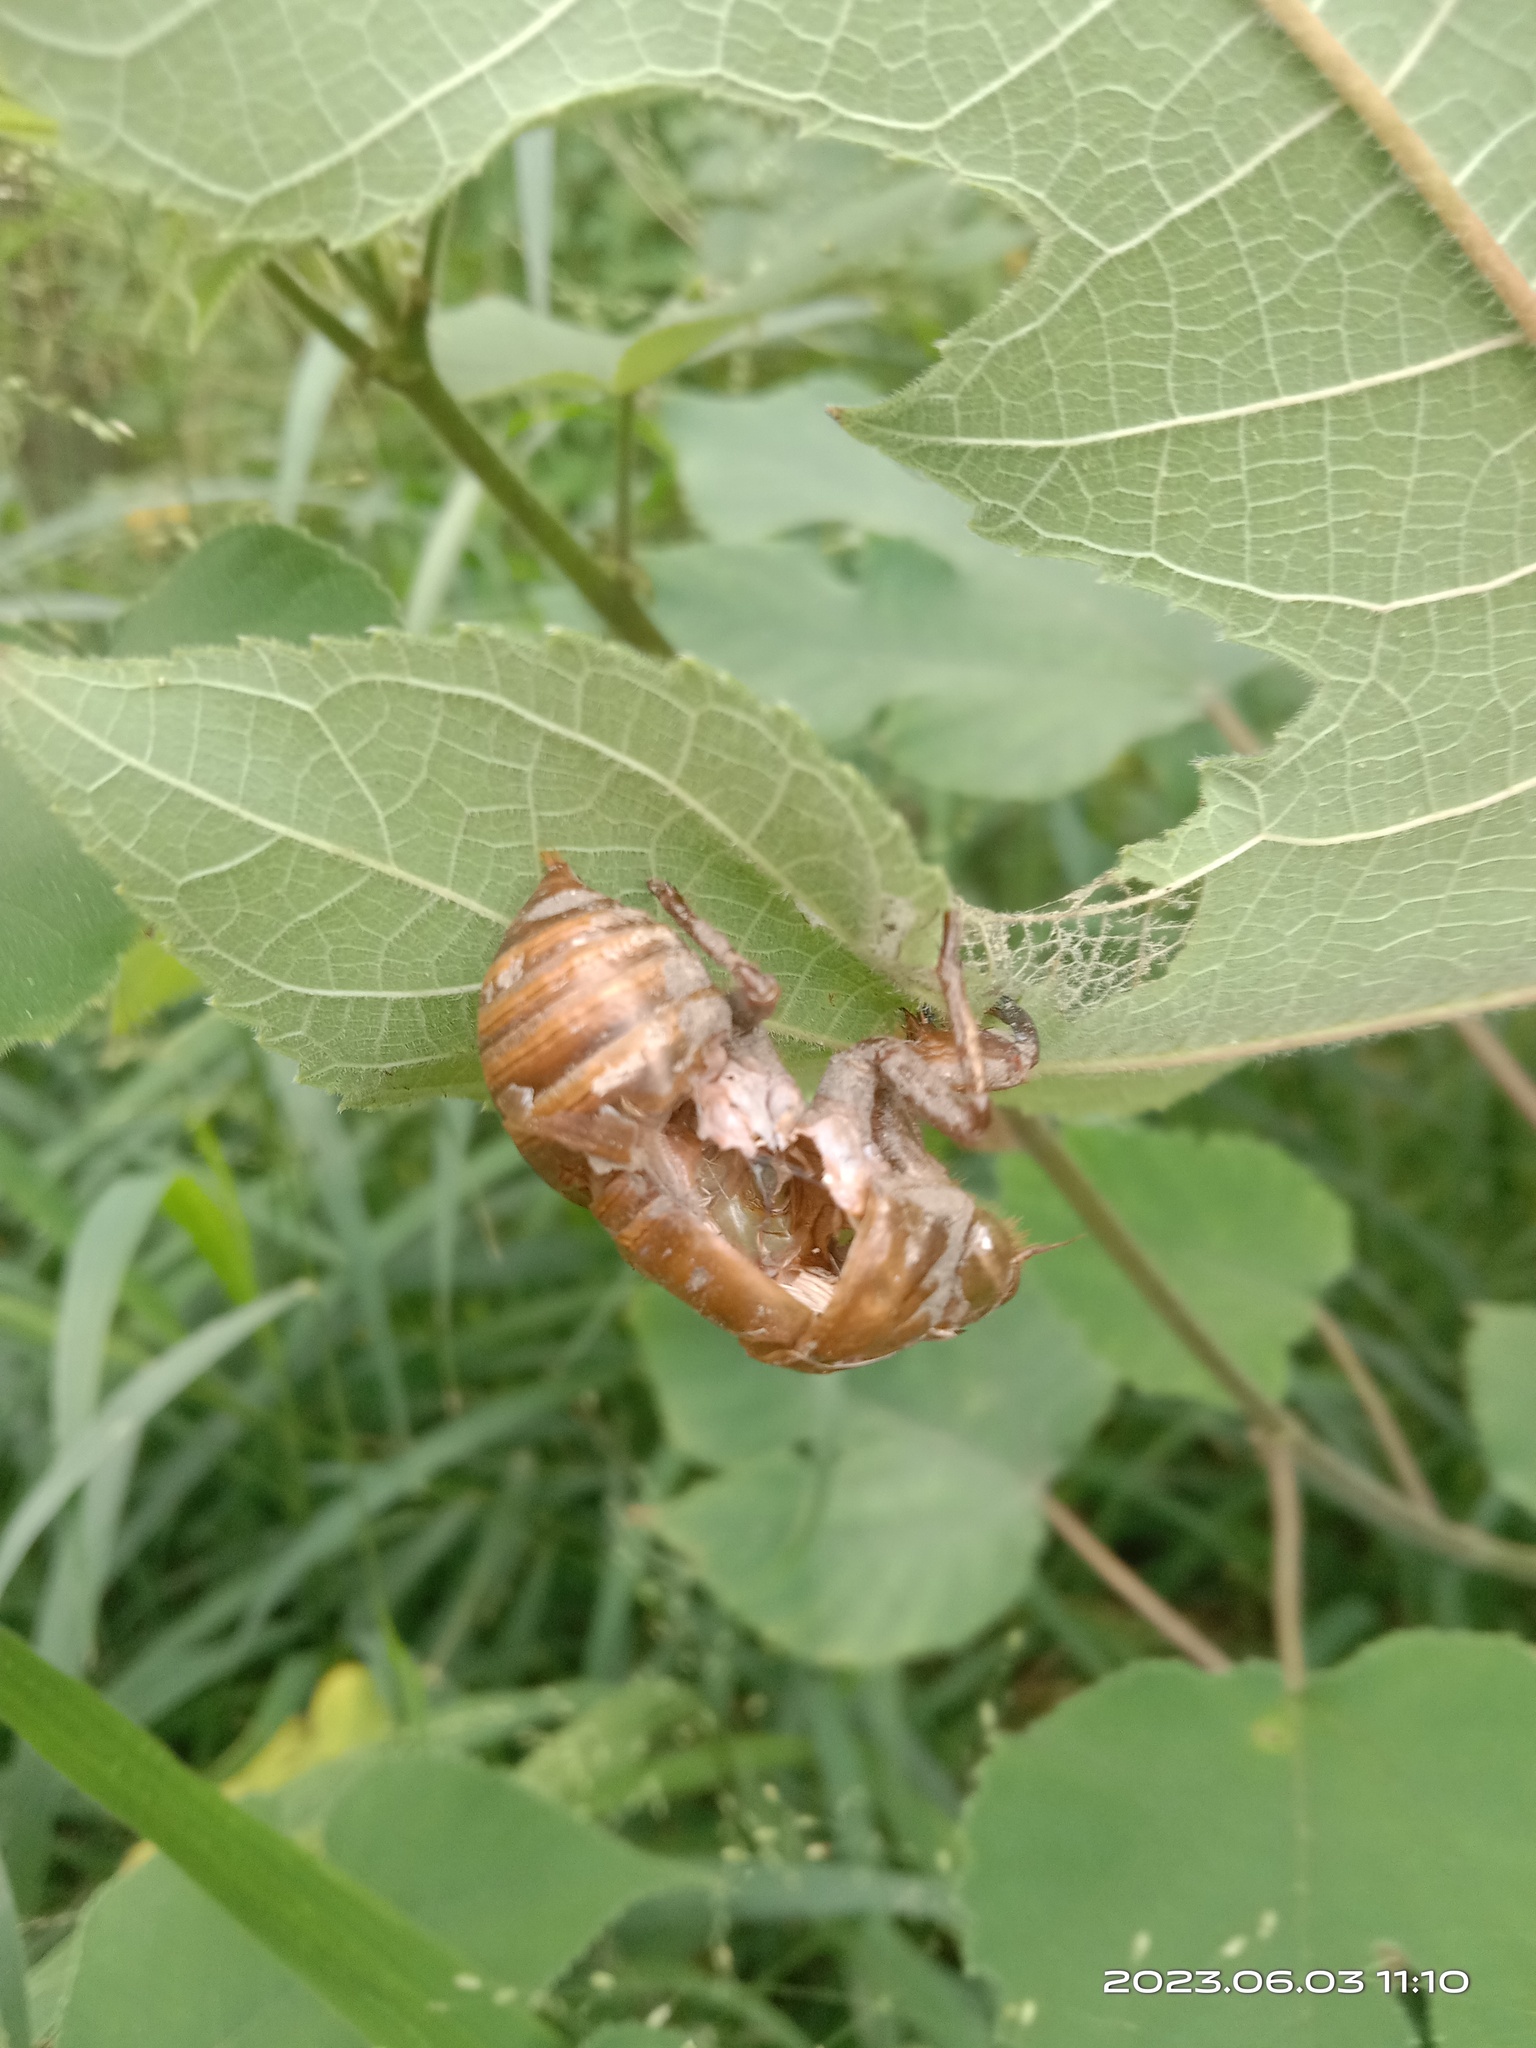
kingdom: Animalia
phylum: Arthropoda
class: Insecta
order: Hemiptera
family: Cicadidae
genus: Cryptotympana
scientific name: Cryptotympana takasagona
